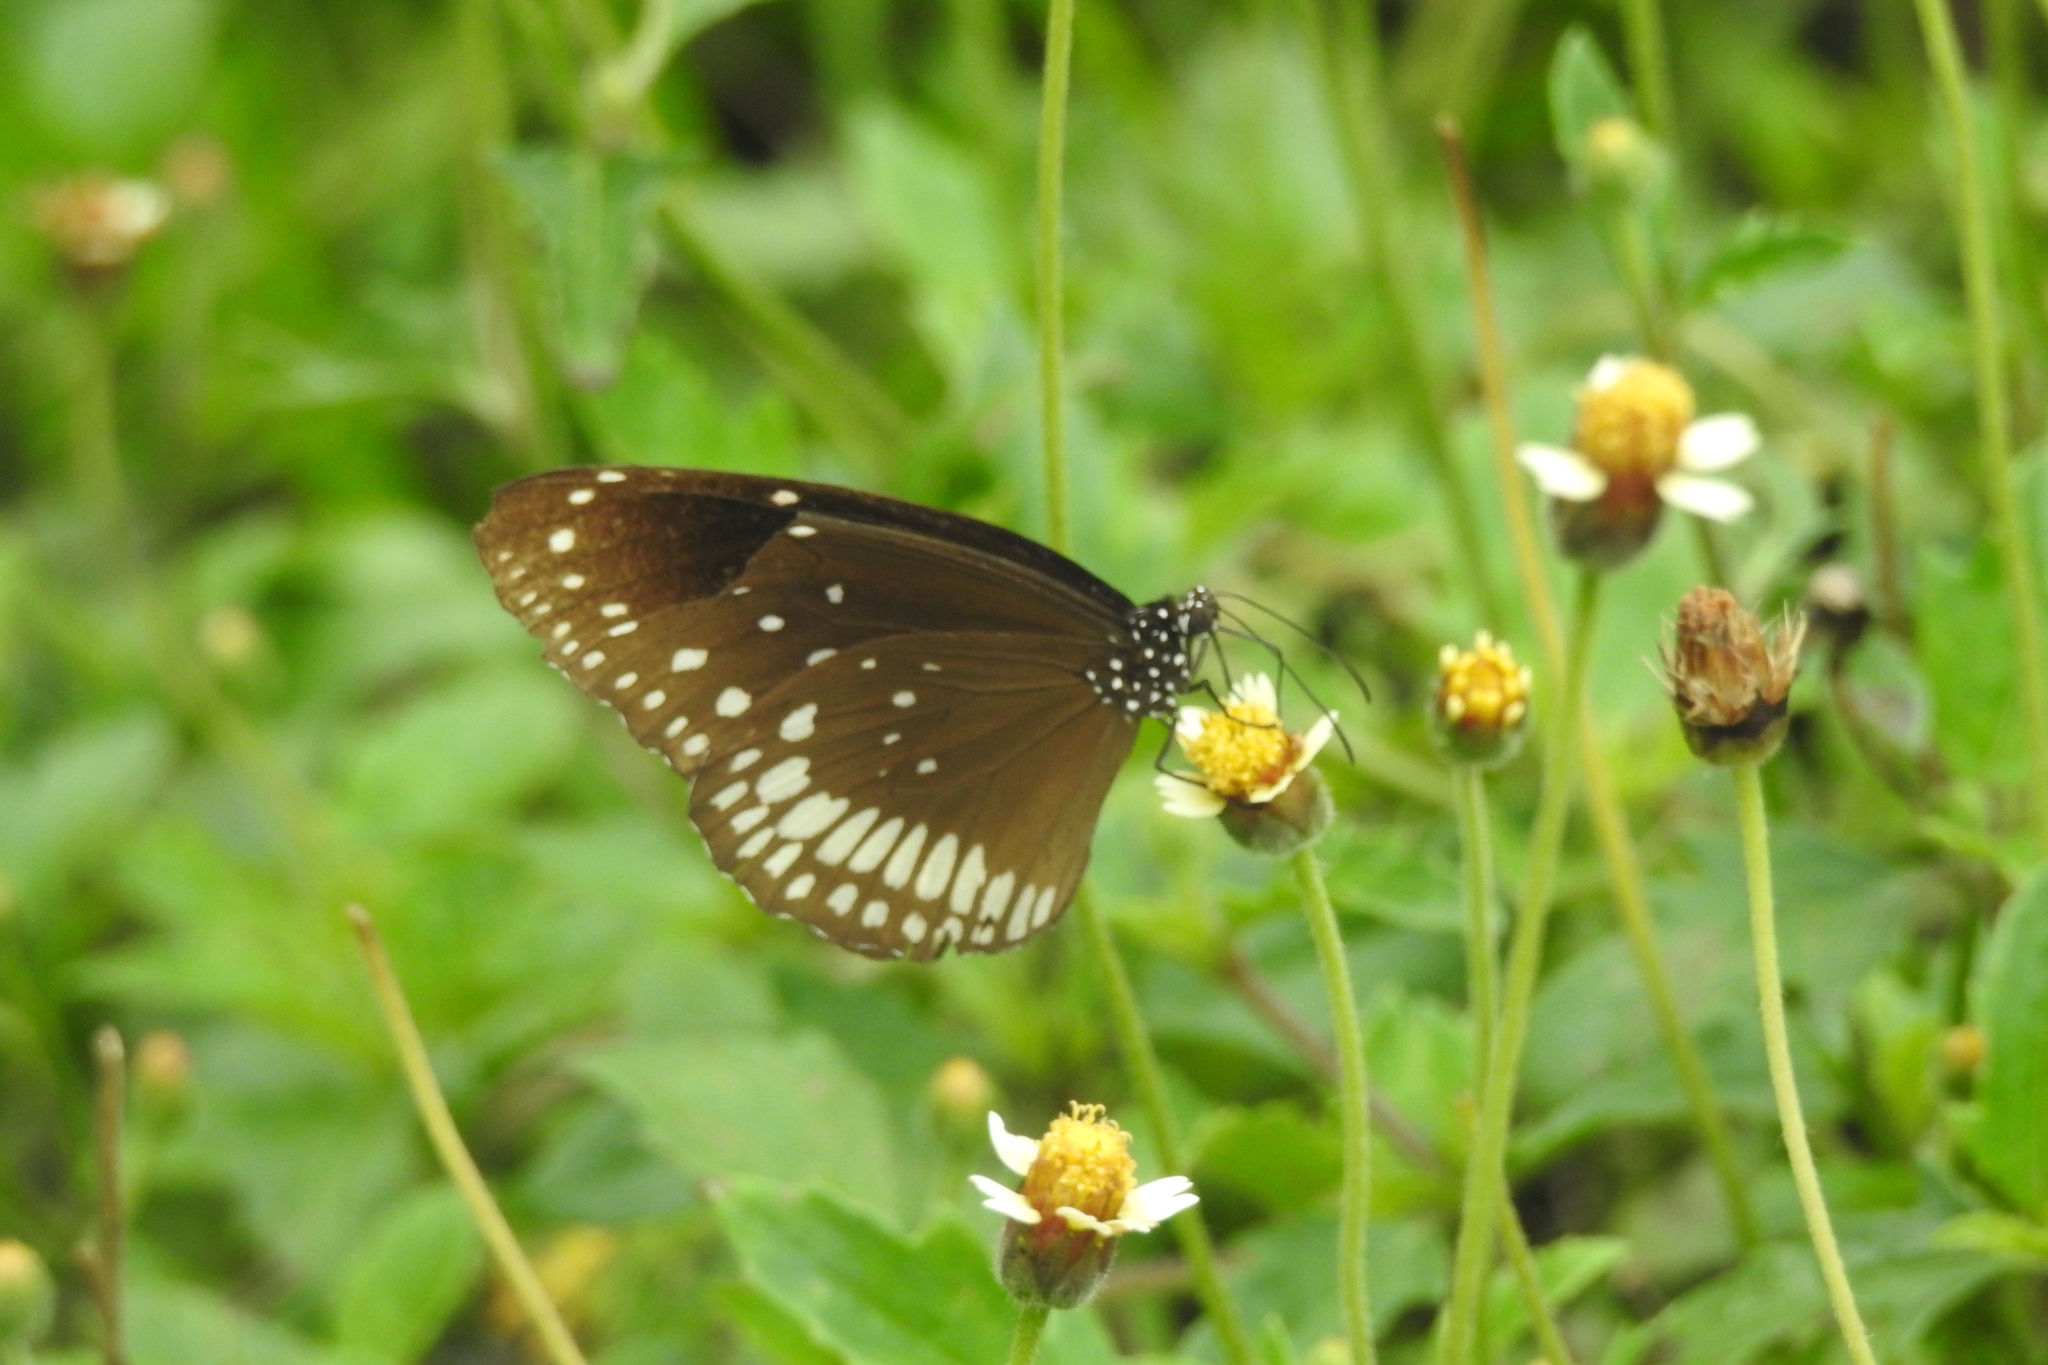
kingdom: Animalia
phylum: Arthropoda
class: Insecta
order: Lepidoptera
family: Nymphalidae
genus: Euploea
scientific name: Euploea sylvester
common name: Double-branded crow butterfly
